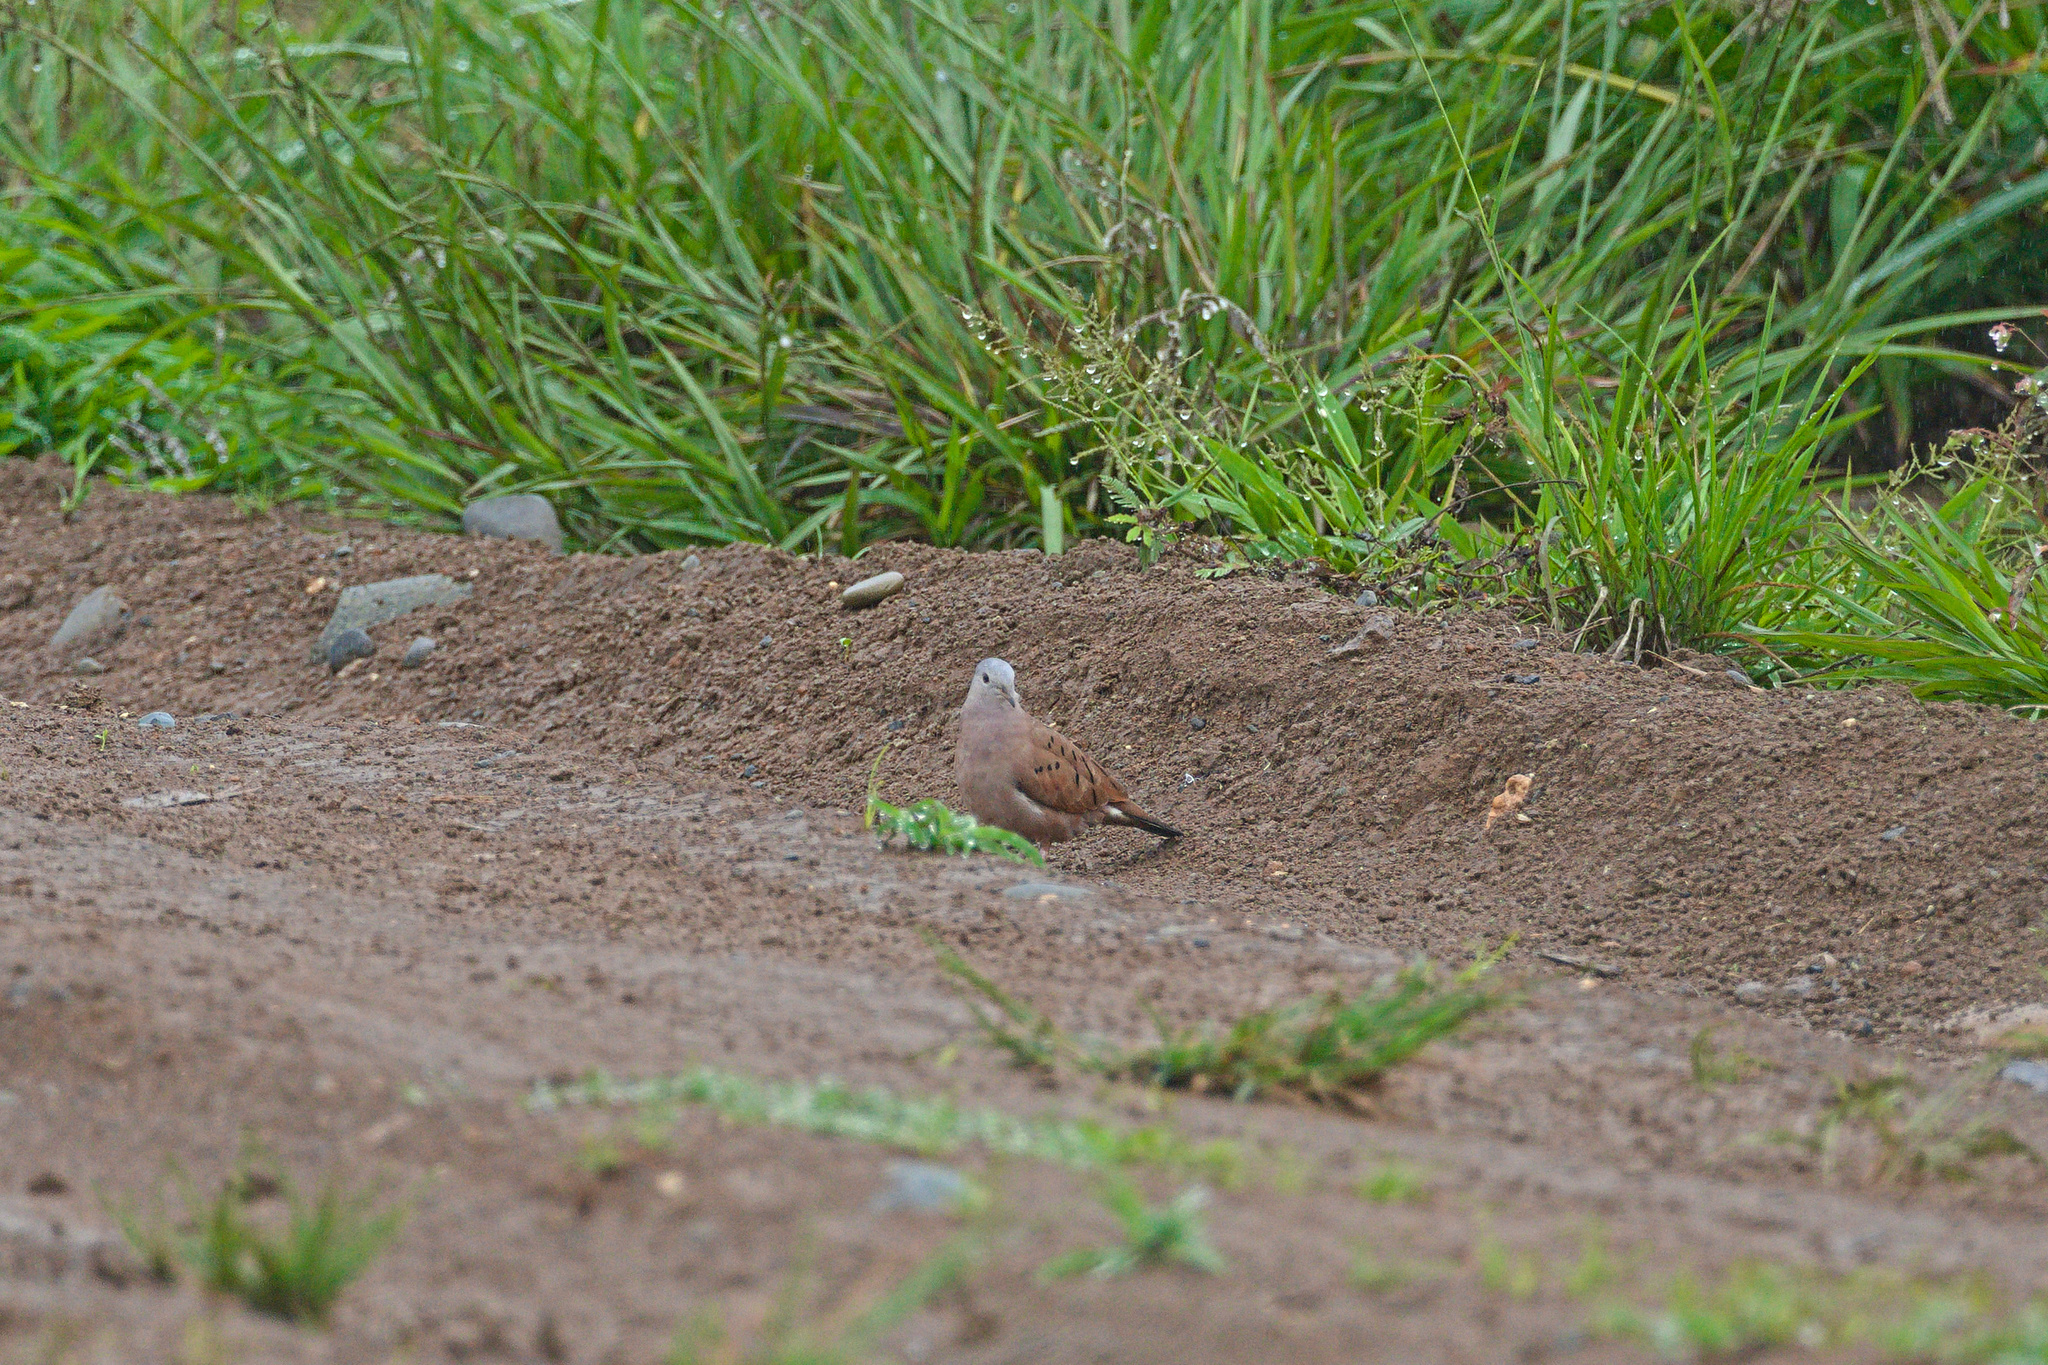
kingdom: Animalia
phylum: Chordata
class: Aves
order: Columbiformes
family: Columbidae
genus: Columbina
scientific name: Columbina talpacoti
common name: Ruddy ground dove
